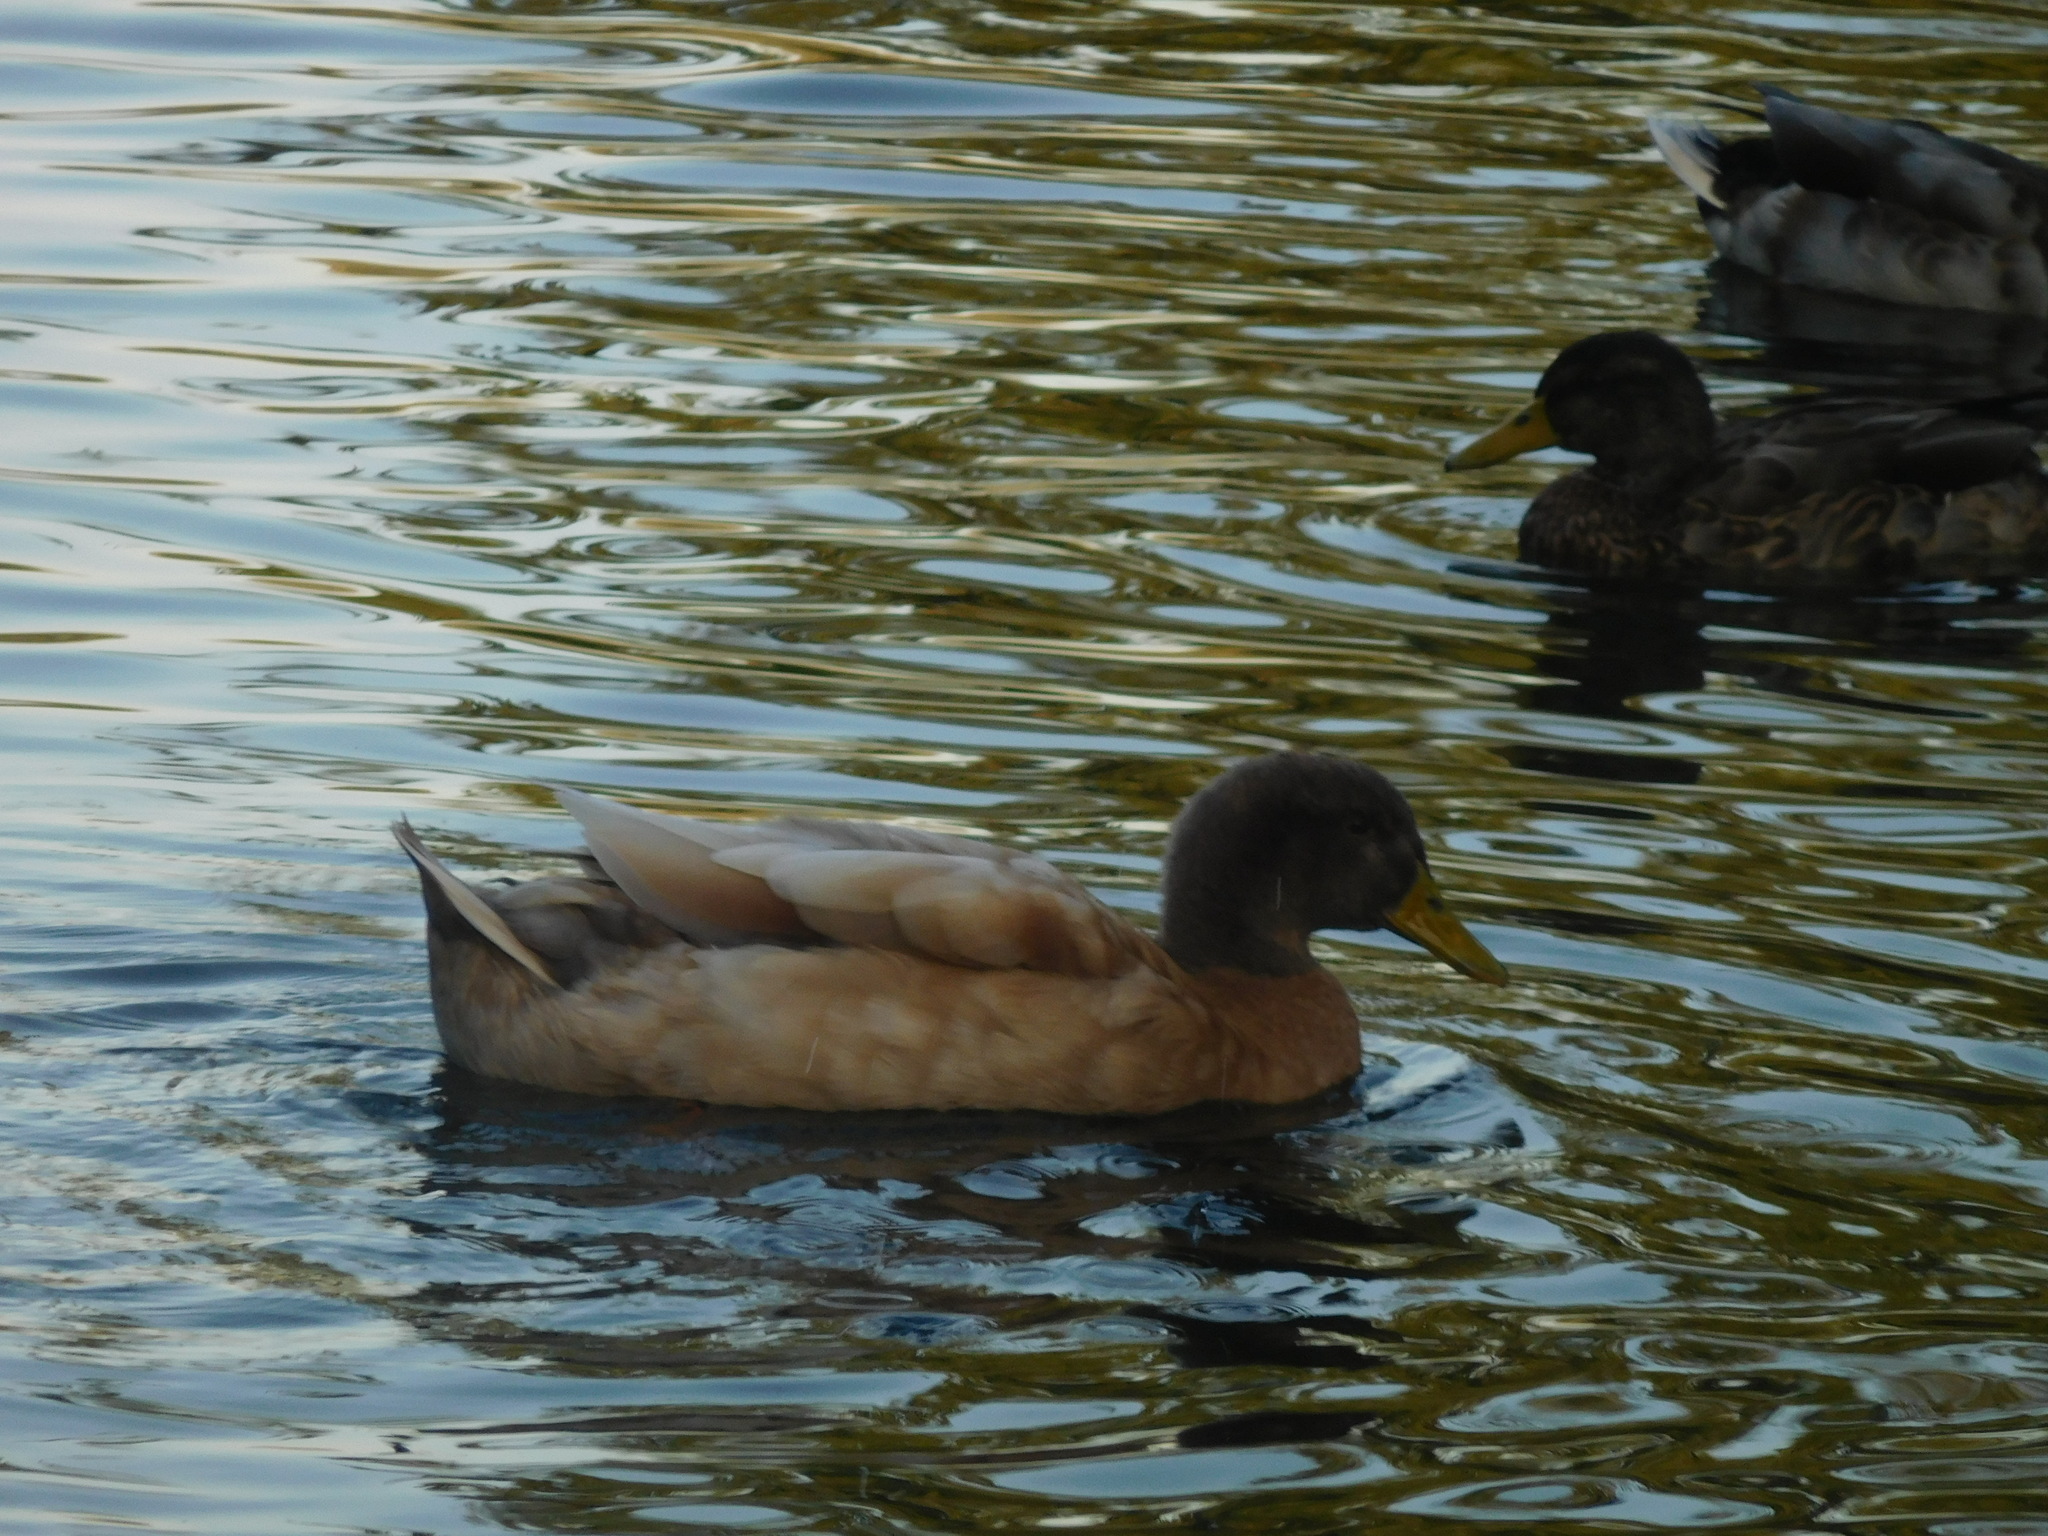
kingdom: Animalia
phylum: Chordata
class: Aves
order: Anseriformes
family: Anatidae
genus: Anas
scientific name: Anas platyrhynchos
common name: Mallard
